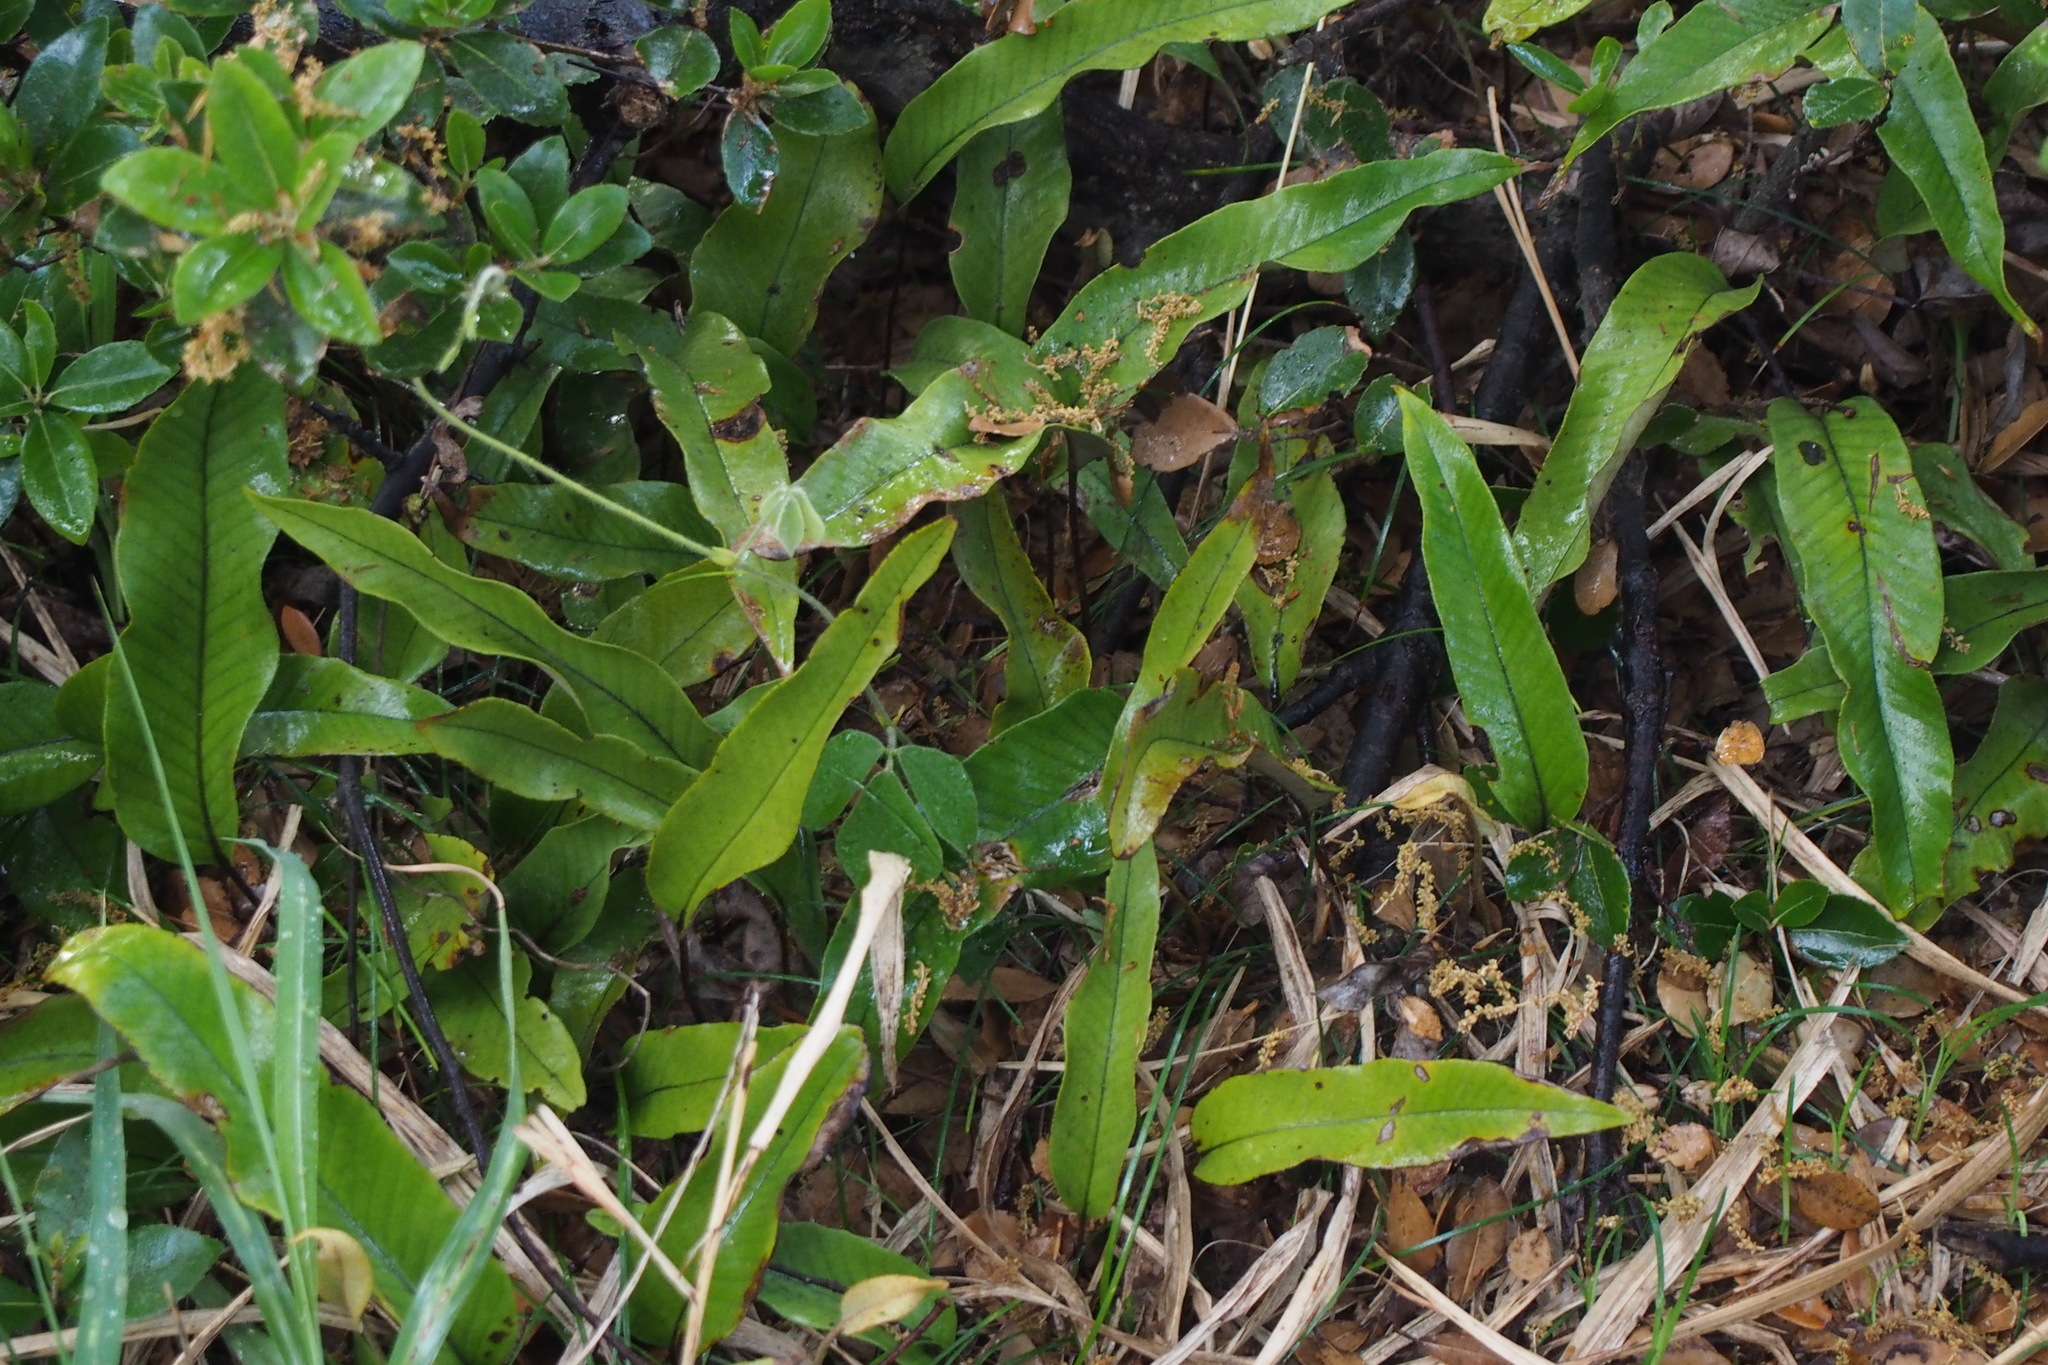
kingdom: Plantae
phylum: Tracheophyta
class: Polypodiopsida
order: Polypodiales
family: Polypodiaceae
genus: Pyrrosia
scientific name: Pyrrosia lingua
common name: Felt fern
